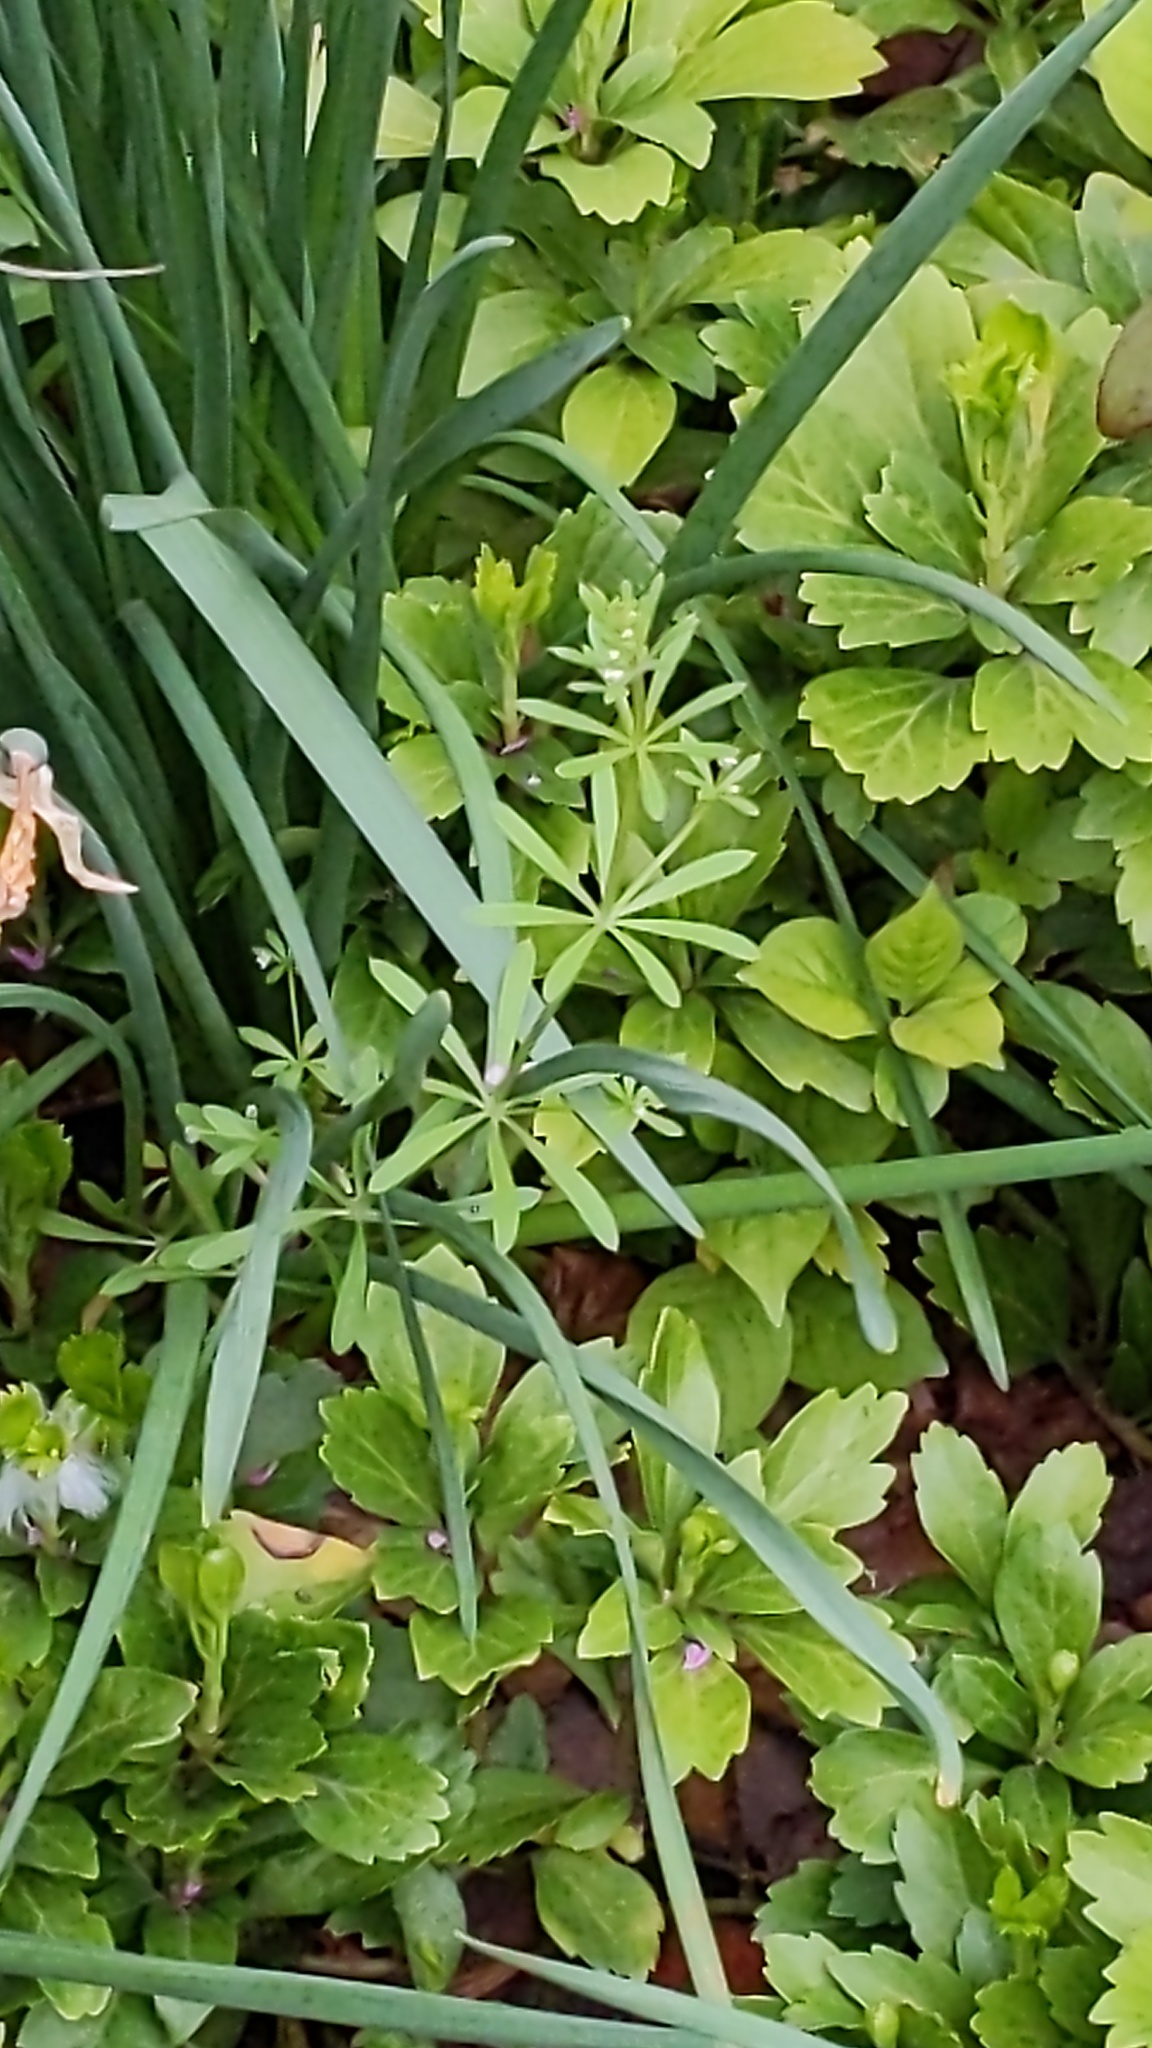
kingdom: Plantae
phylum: Tracheophyta
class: Magnoliopsida
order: Gentianales
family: Rubiaceae
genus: Galium
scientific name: Galium aparine
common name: Cleavers
